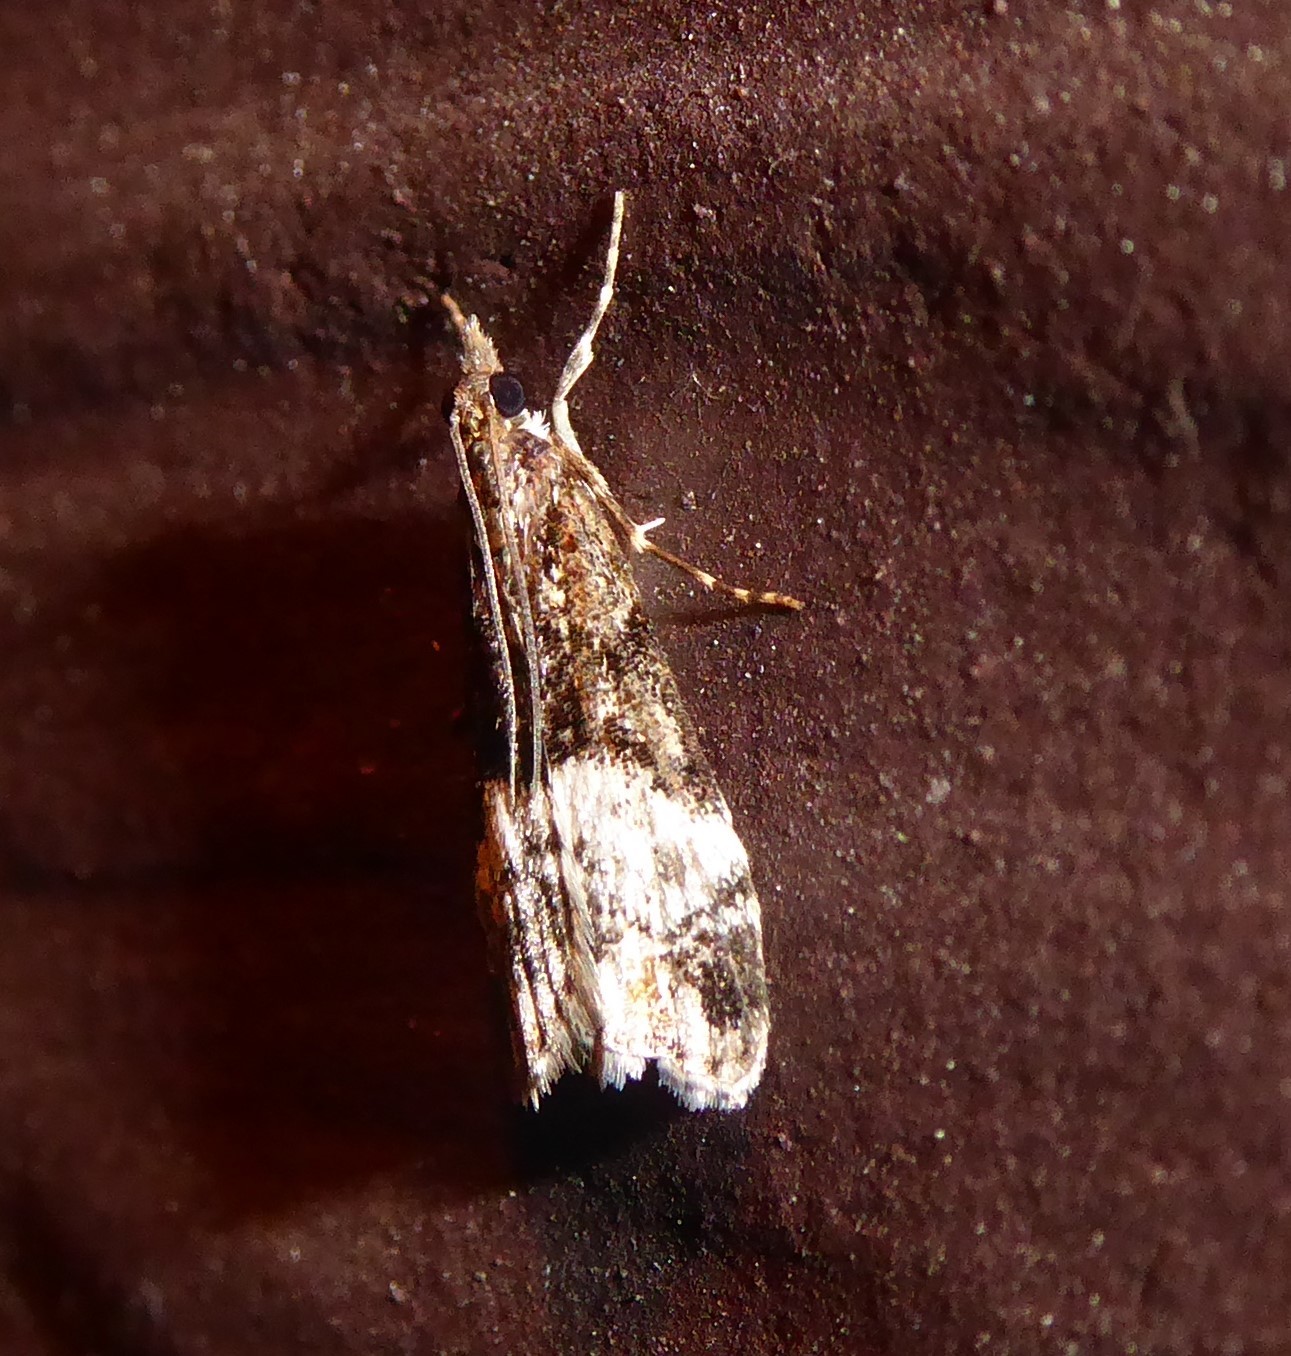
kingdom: Animalia
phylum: Arthropoda
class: Insecta
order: Lepidoptera
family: Crambidae
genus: Scoparia
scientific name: Scoparia minusculalis
